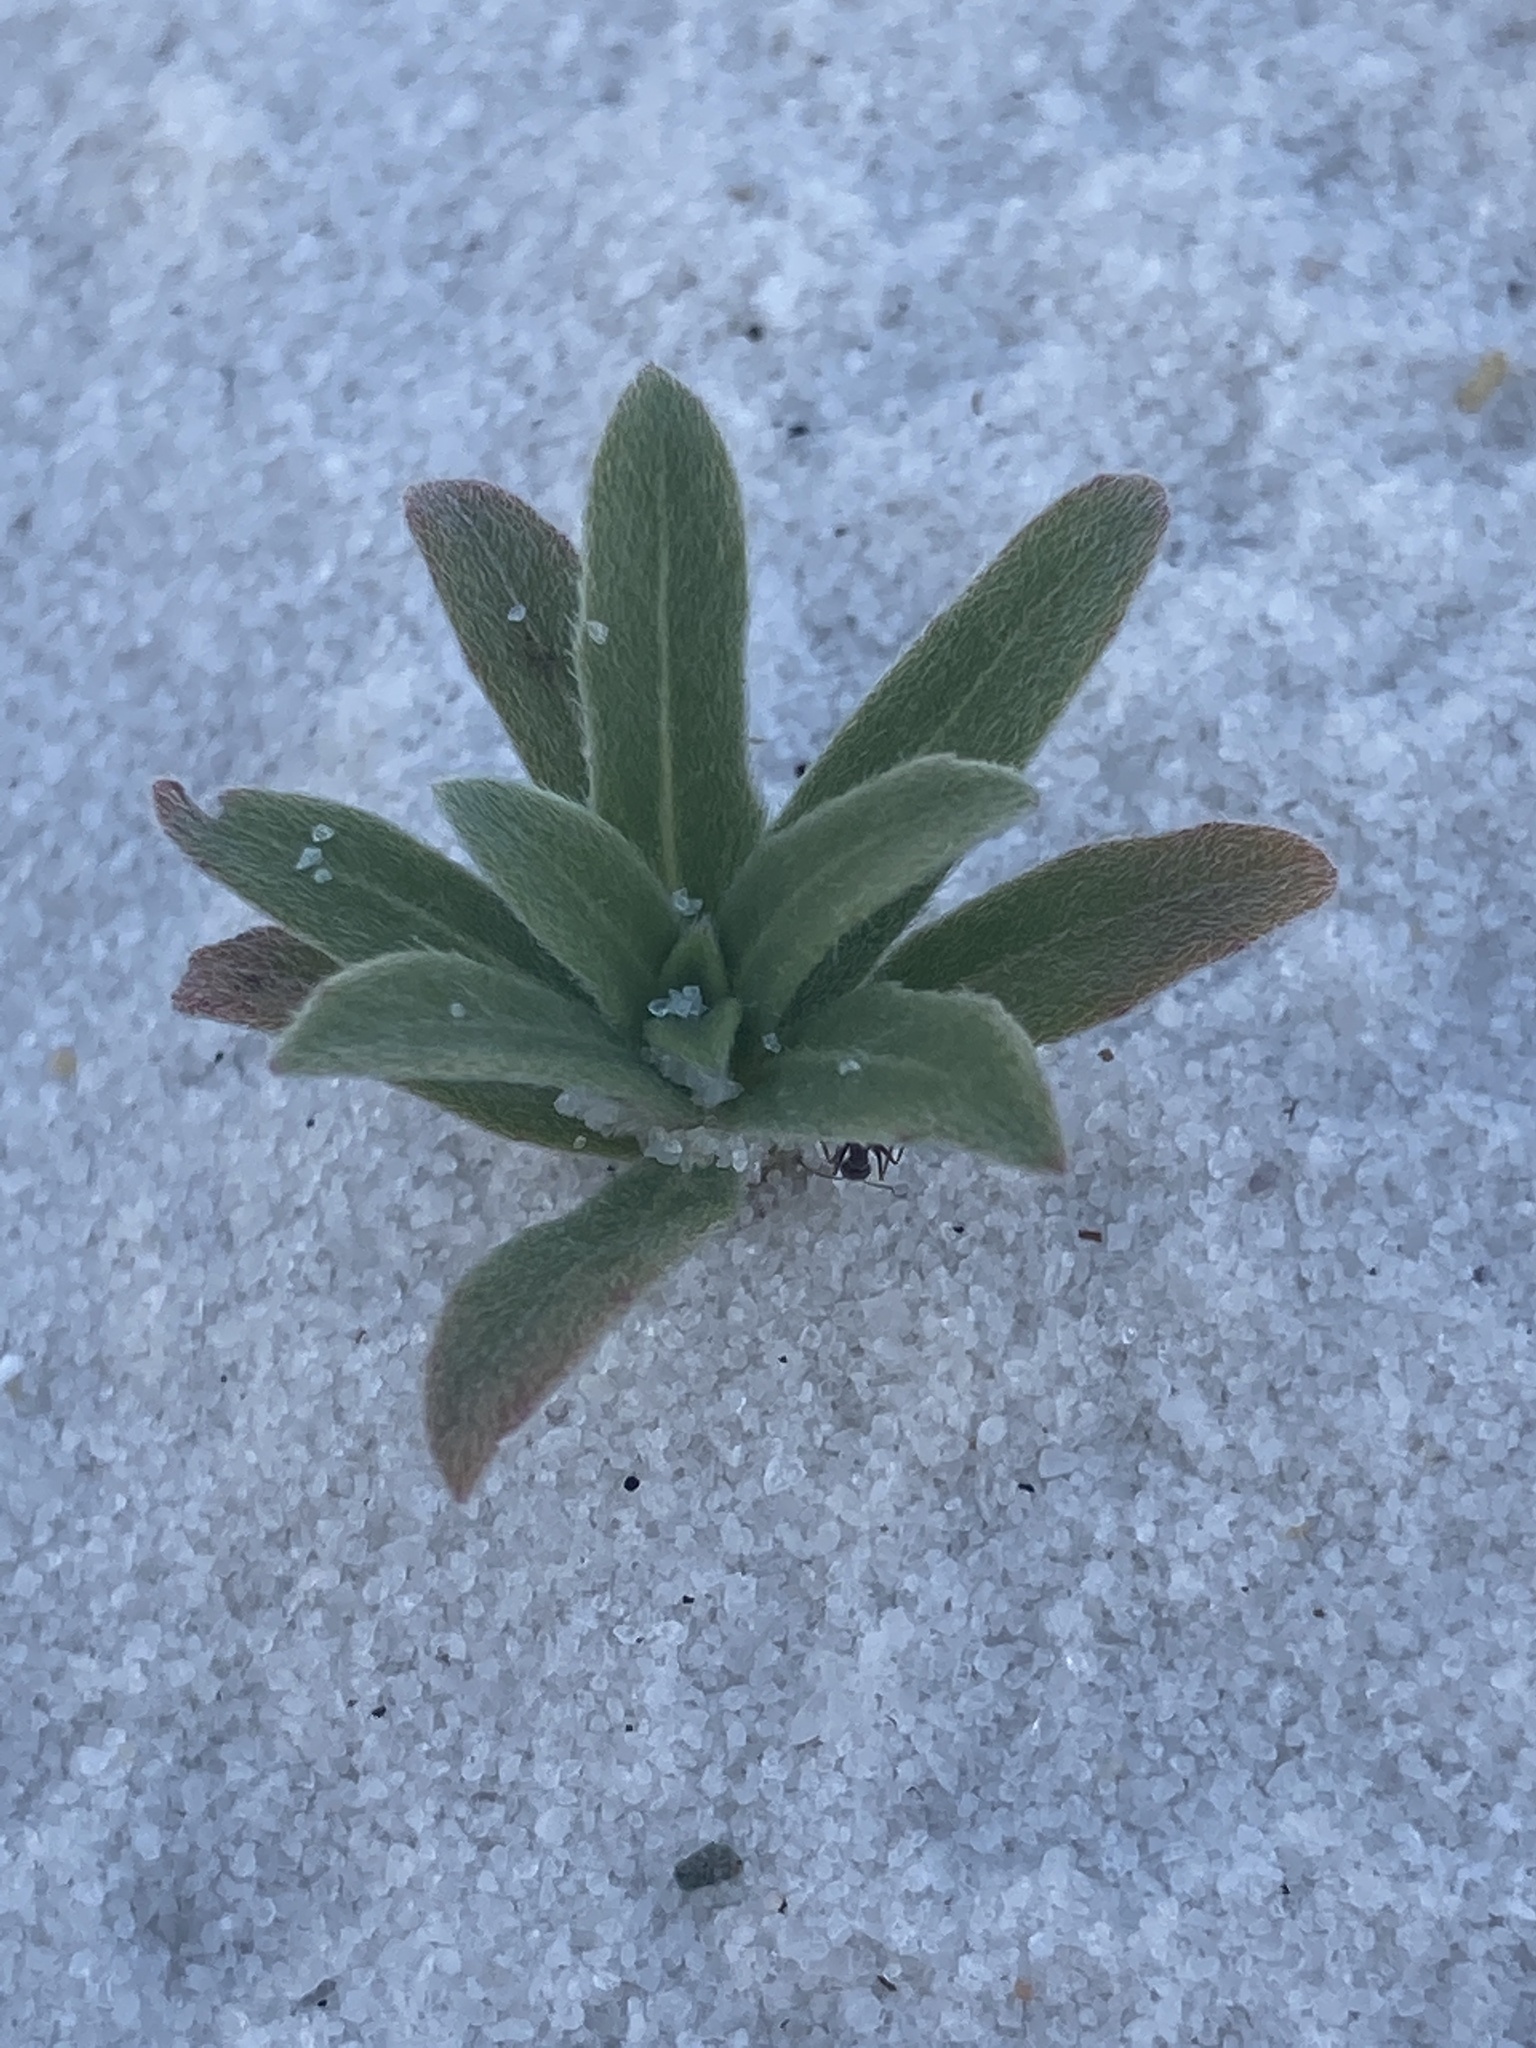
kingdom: Plantae
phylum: Tracheophyta
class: Magnoliopsida
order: Myrtales
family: Onagraceae
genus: Oenothera
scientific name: Oenothera humifusa
